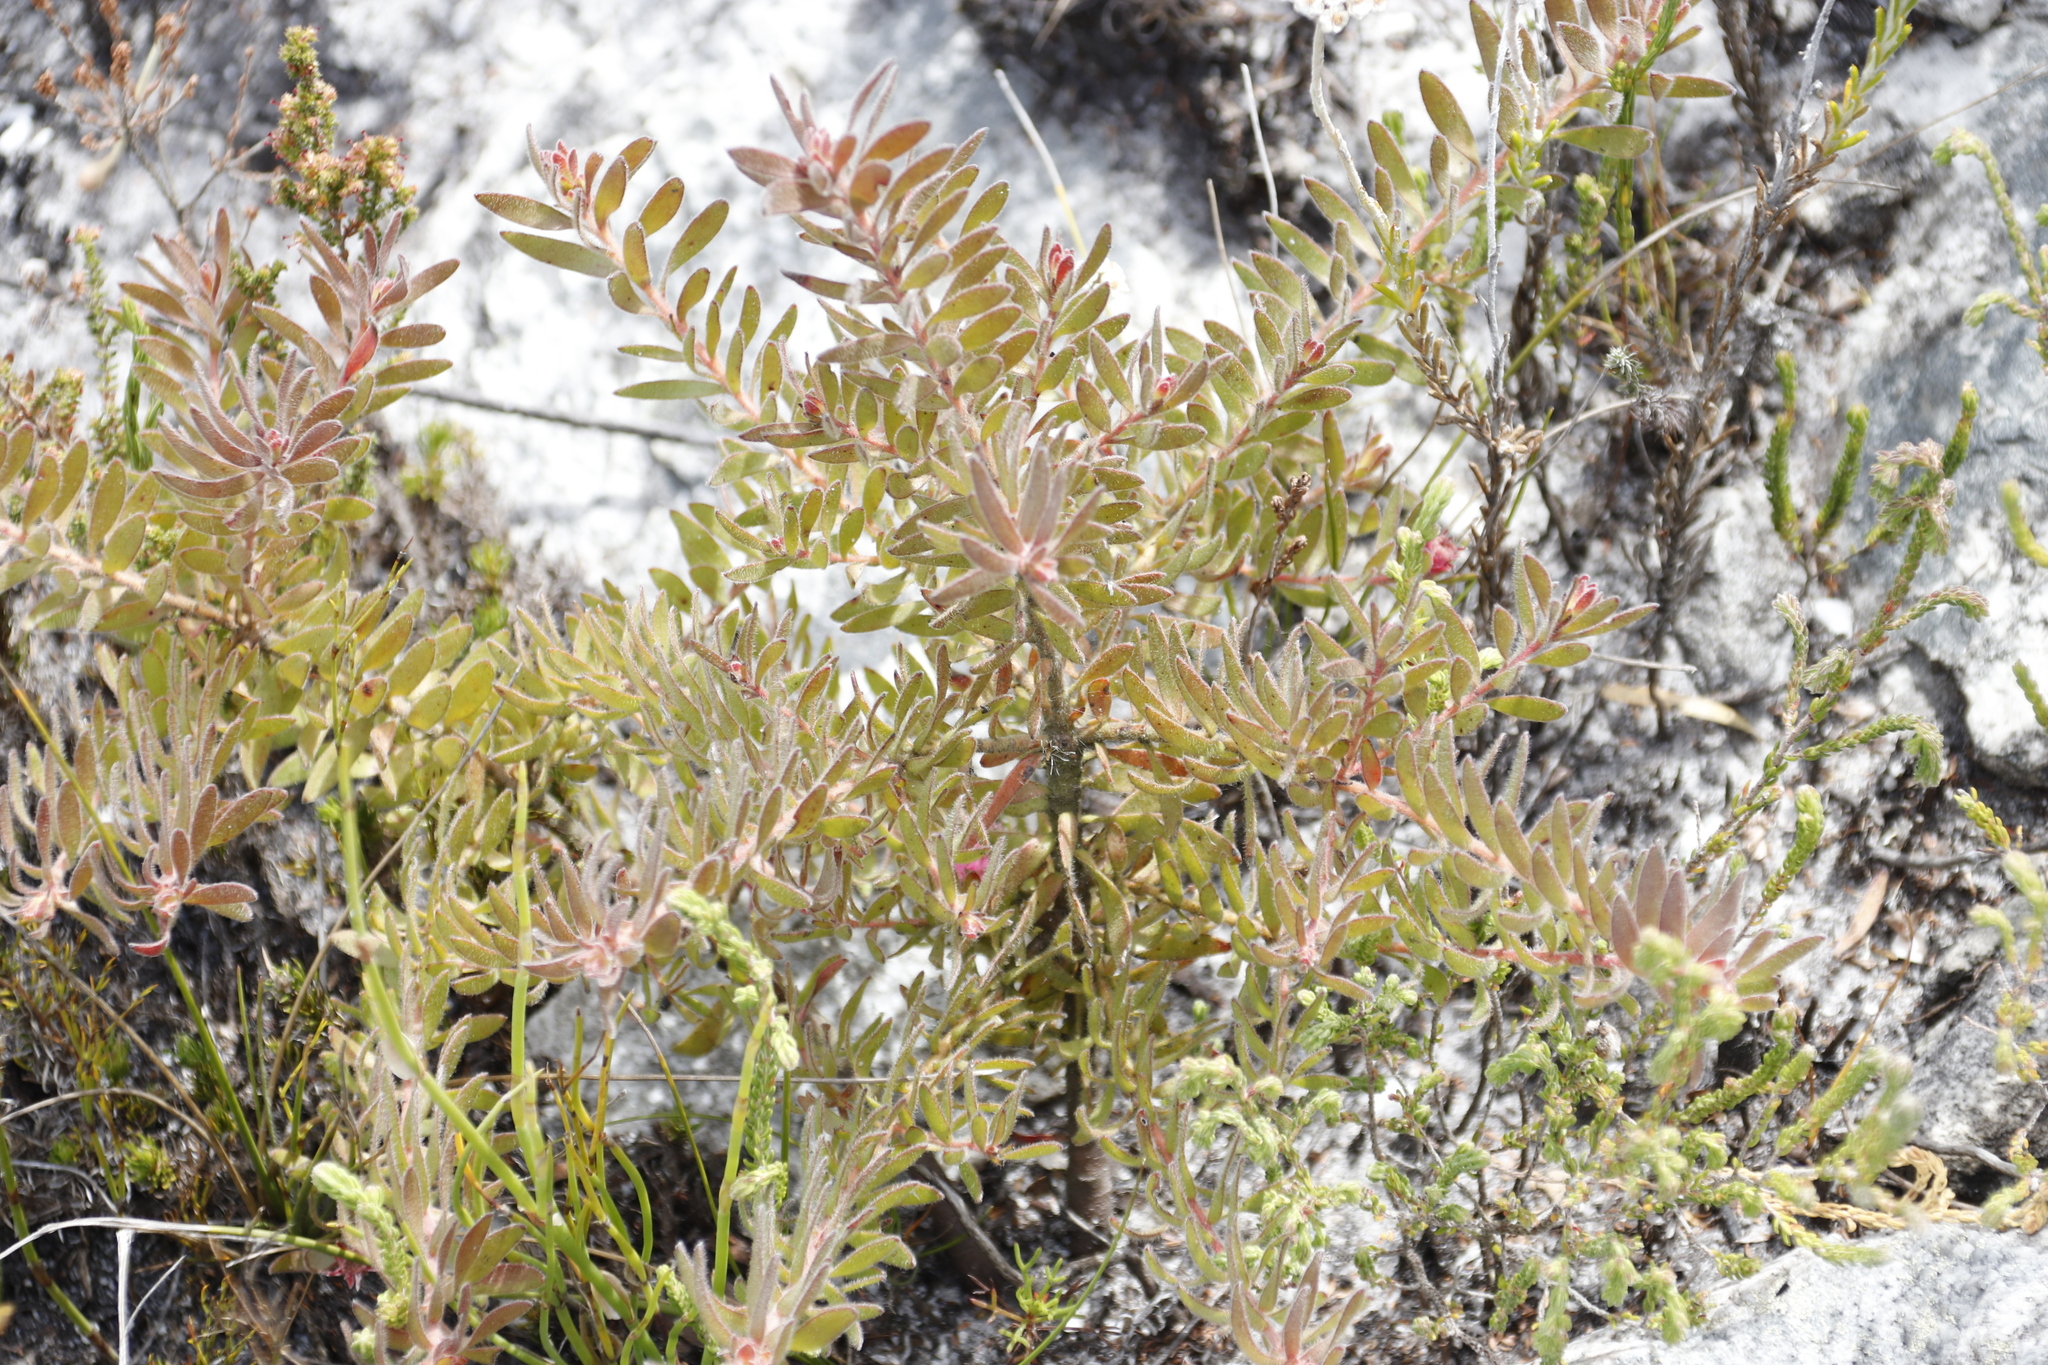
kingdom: Plantae
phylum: Tracheophyta
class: Magnoliopsida
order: Proteales
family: Proteaceae
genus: Diastella
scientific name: Diastella divaricata
